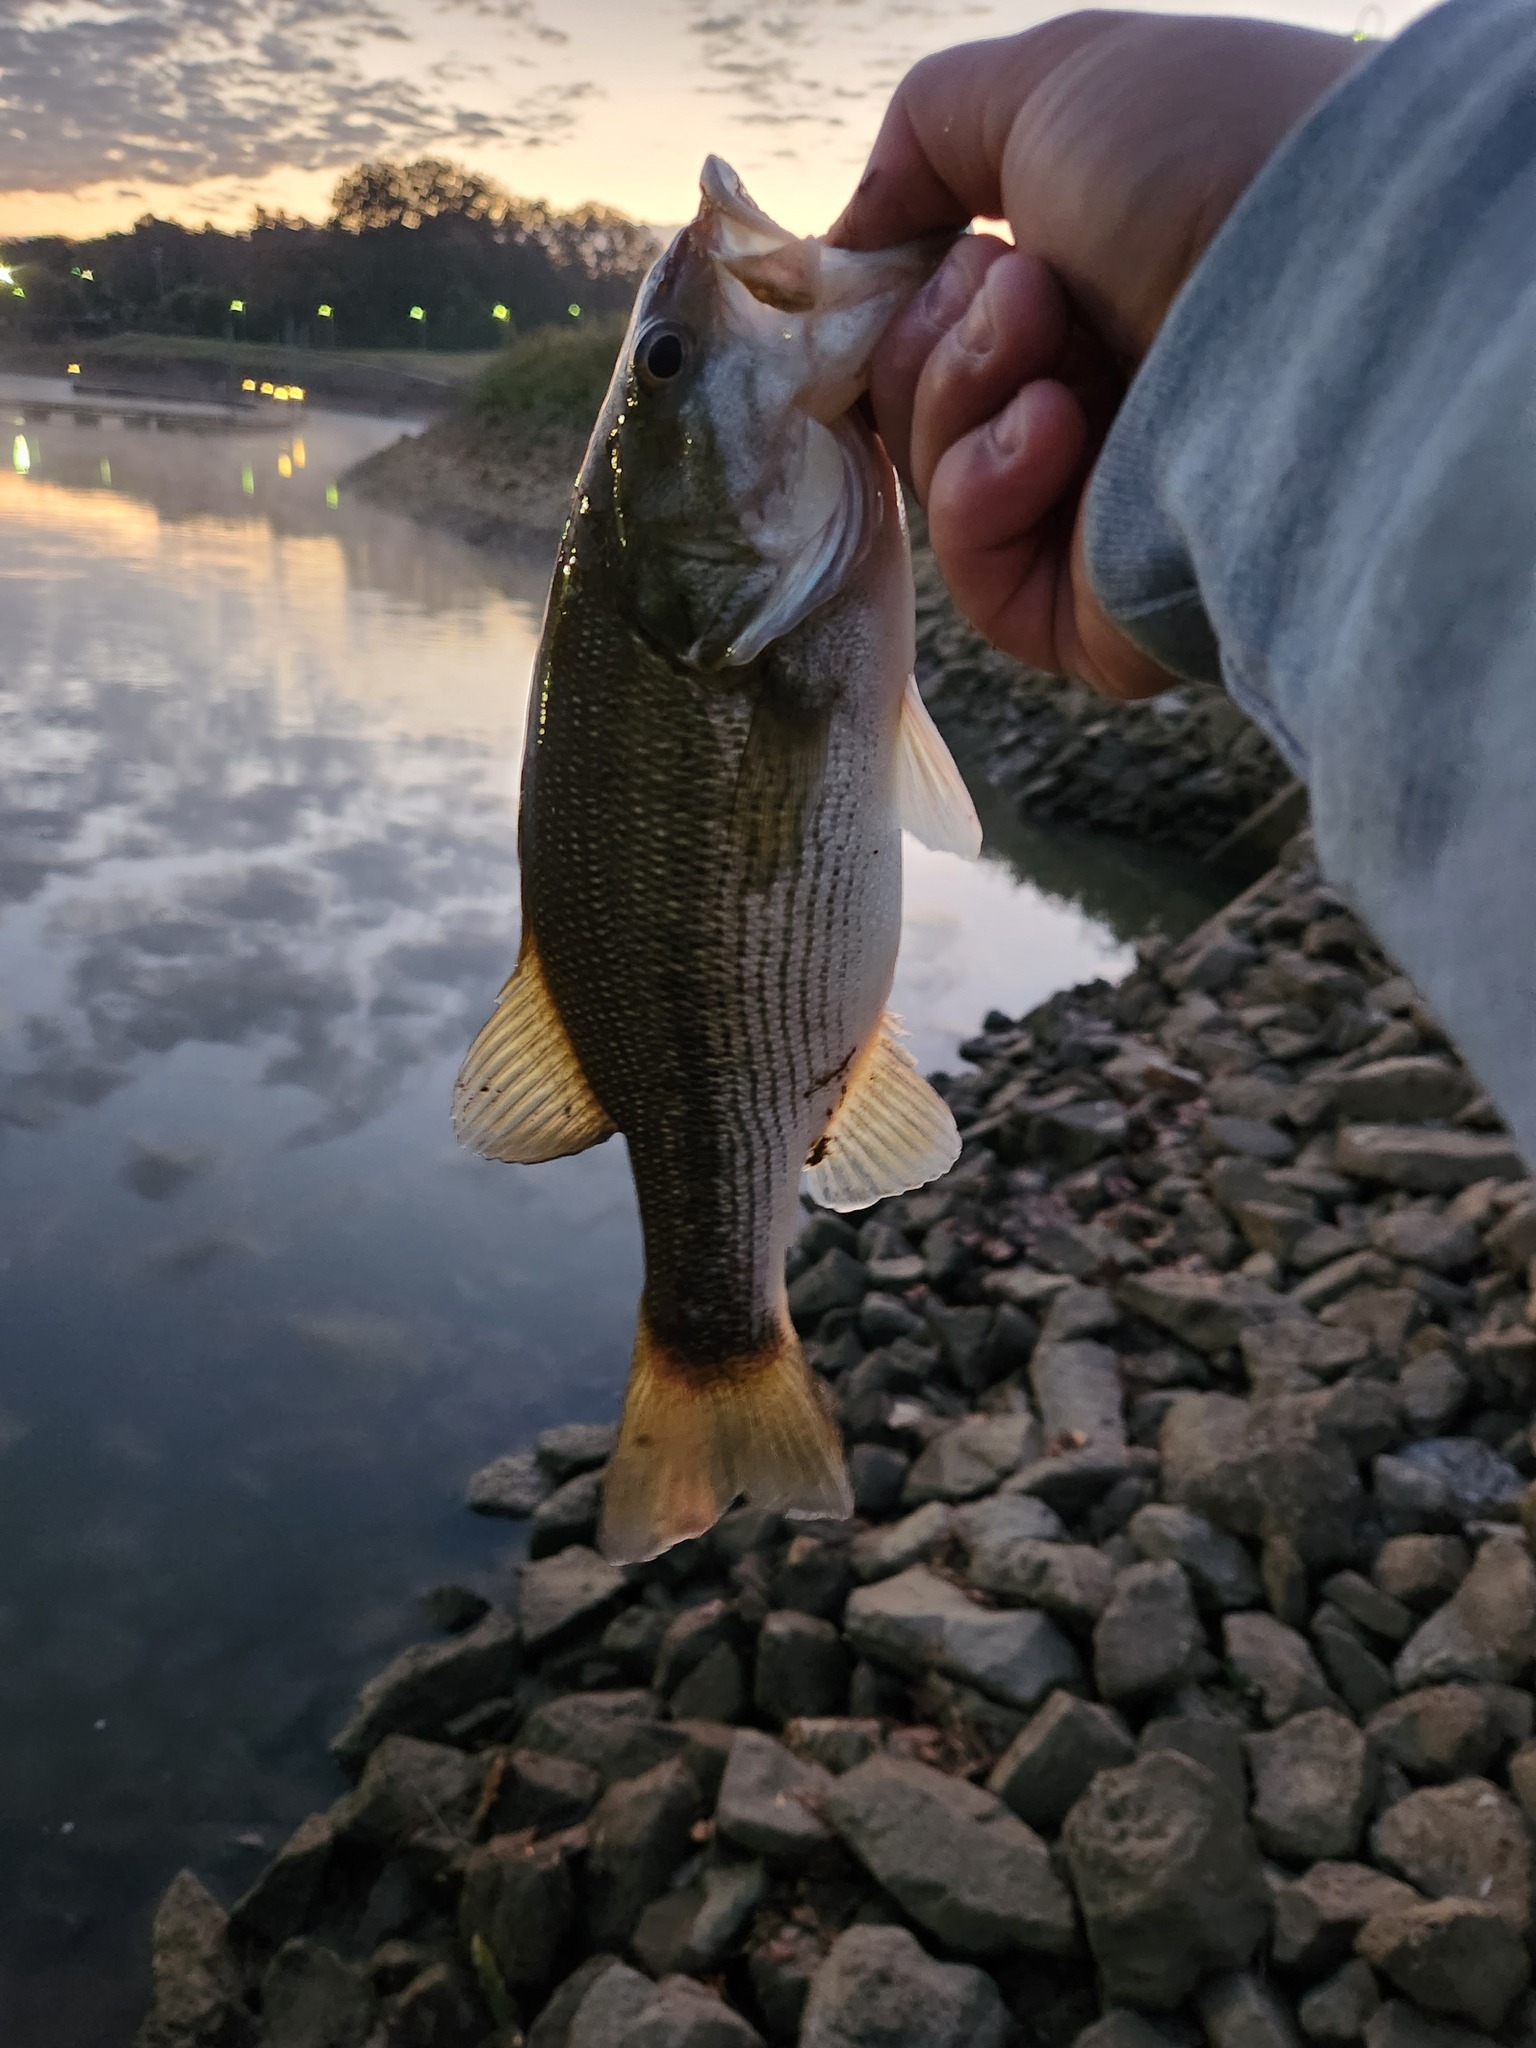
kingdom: Animalia
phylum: Chordata
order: Perciformes
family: Centrarchidae
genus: Micropterus
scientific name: Micropterus punctulatus
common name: Spotted bass
